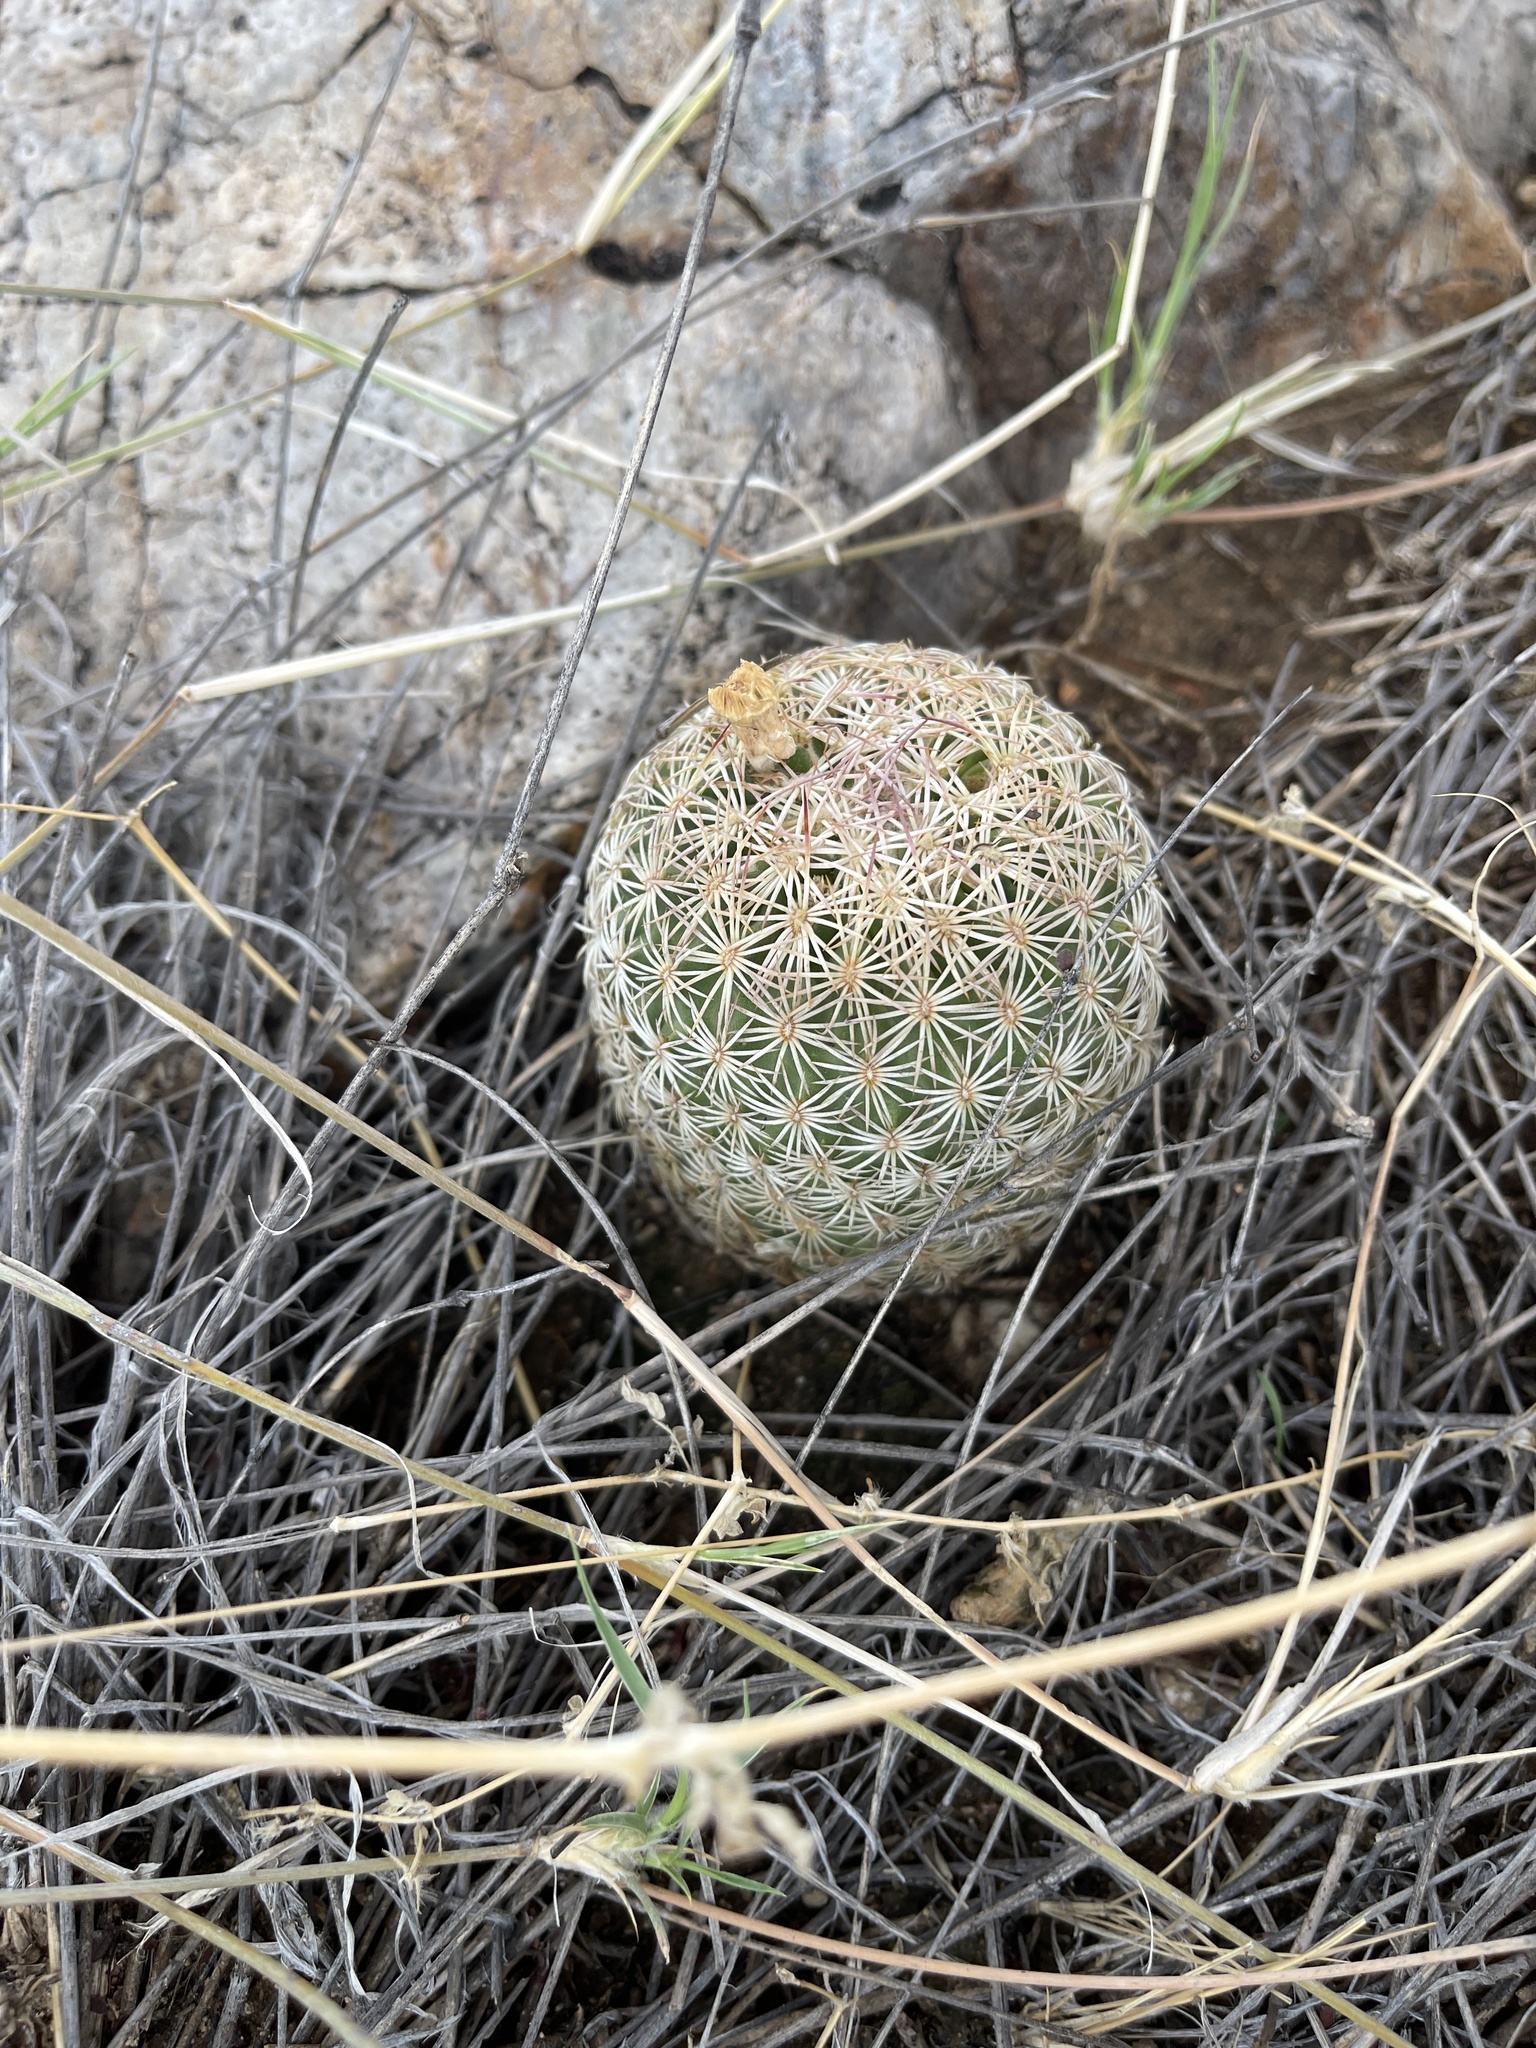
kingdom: Plantae
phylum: Tracheophyta
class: Magnoliopsida
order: Caryophyllales
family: Cactaceae
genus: Sclerocactus
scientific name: Sclerocactus johnsonii
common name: Eight-spine fishhook cactus
